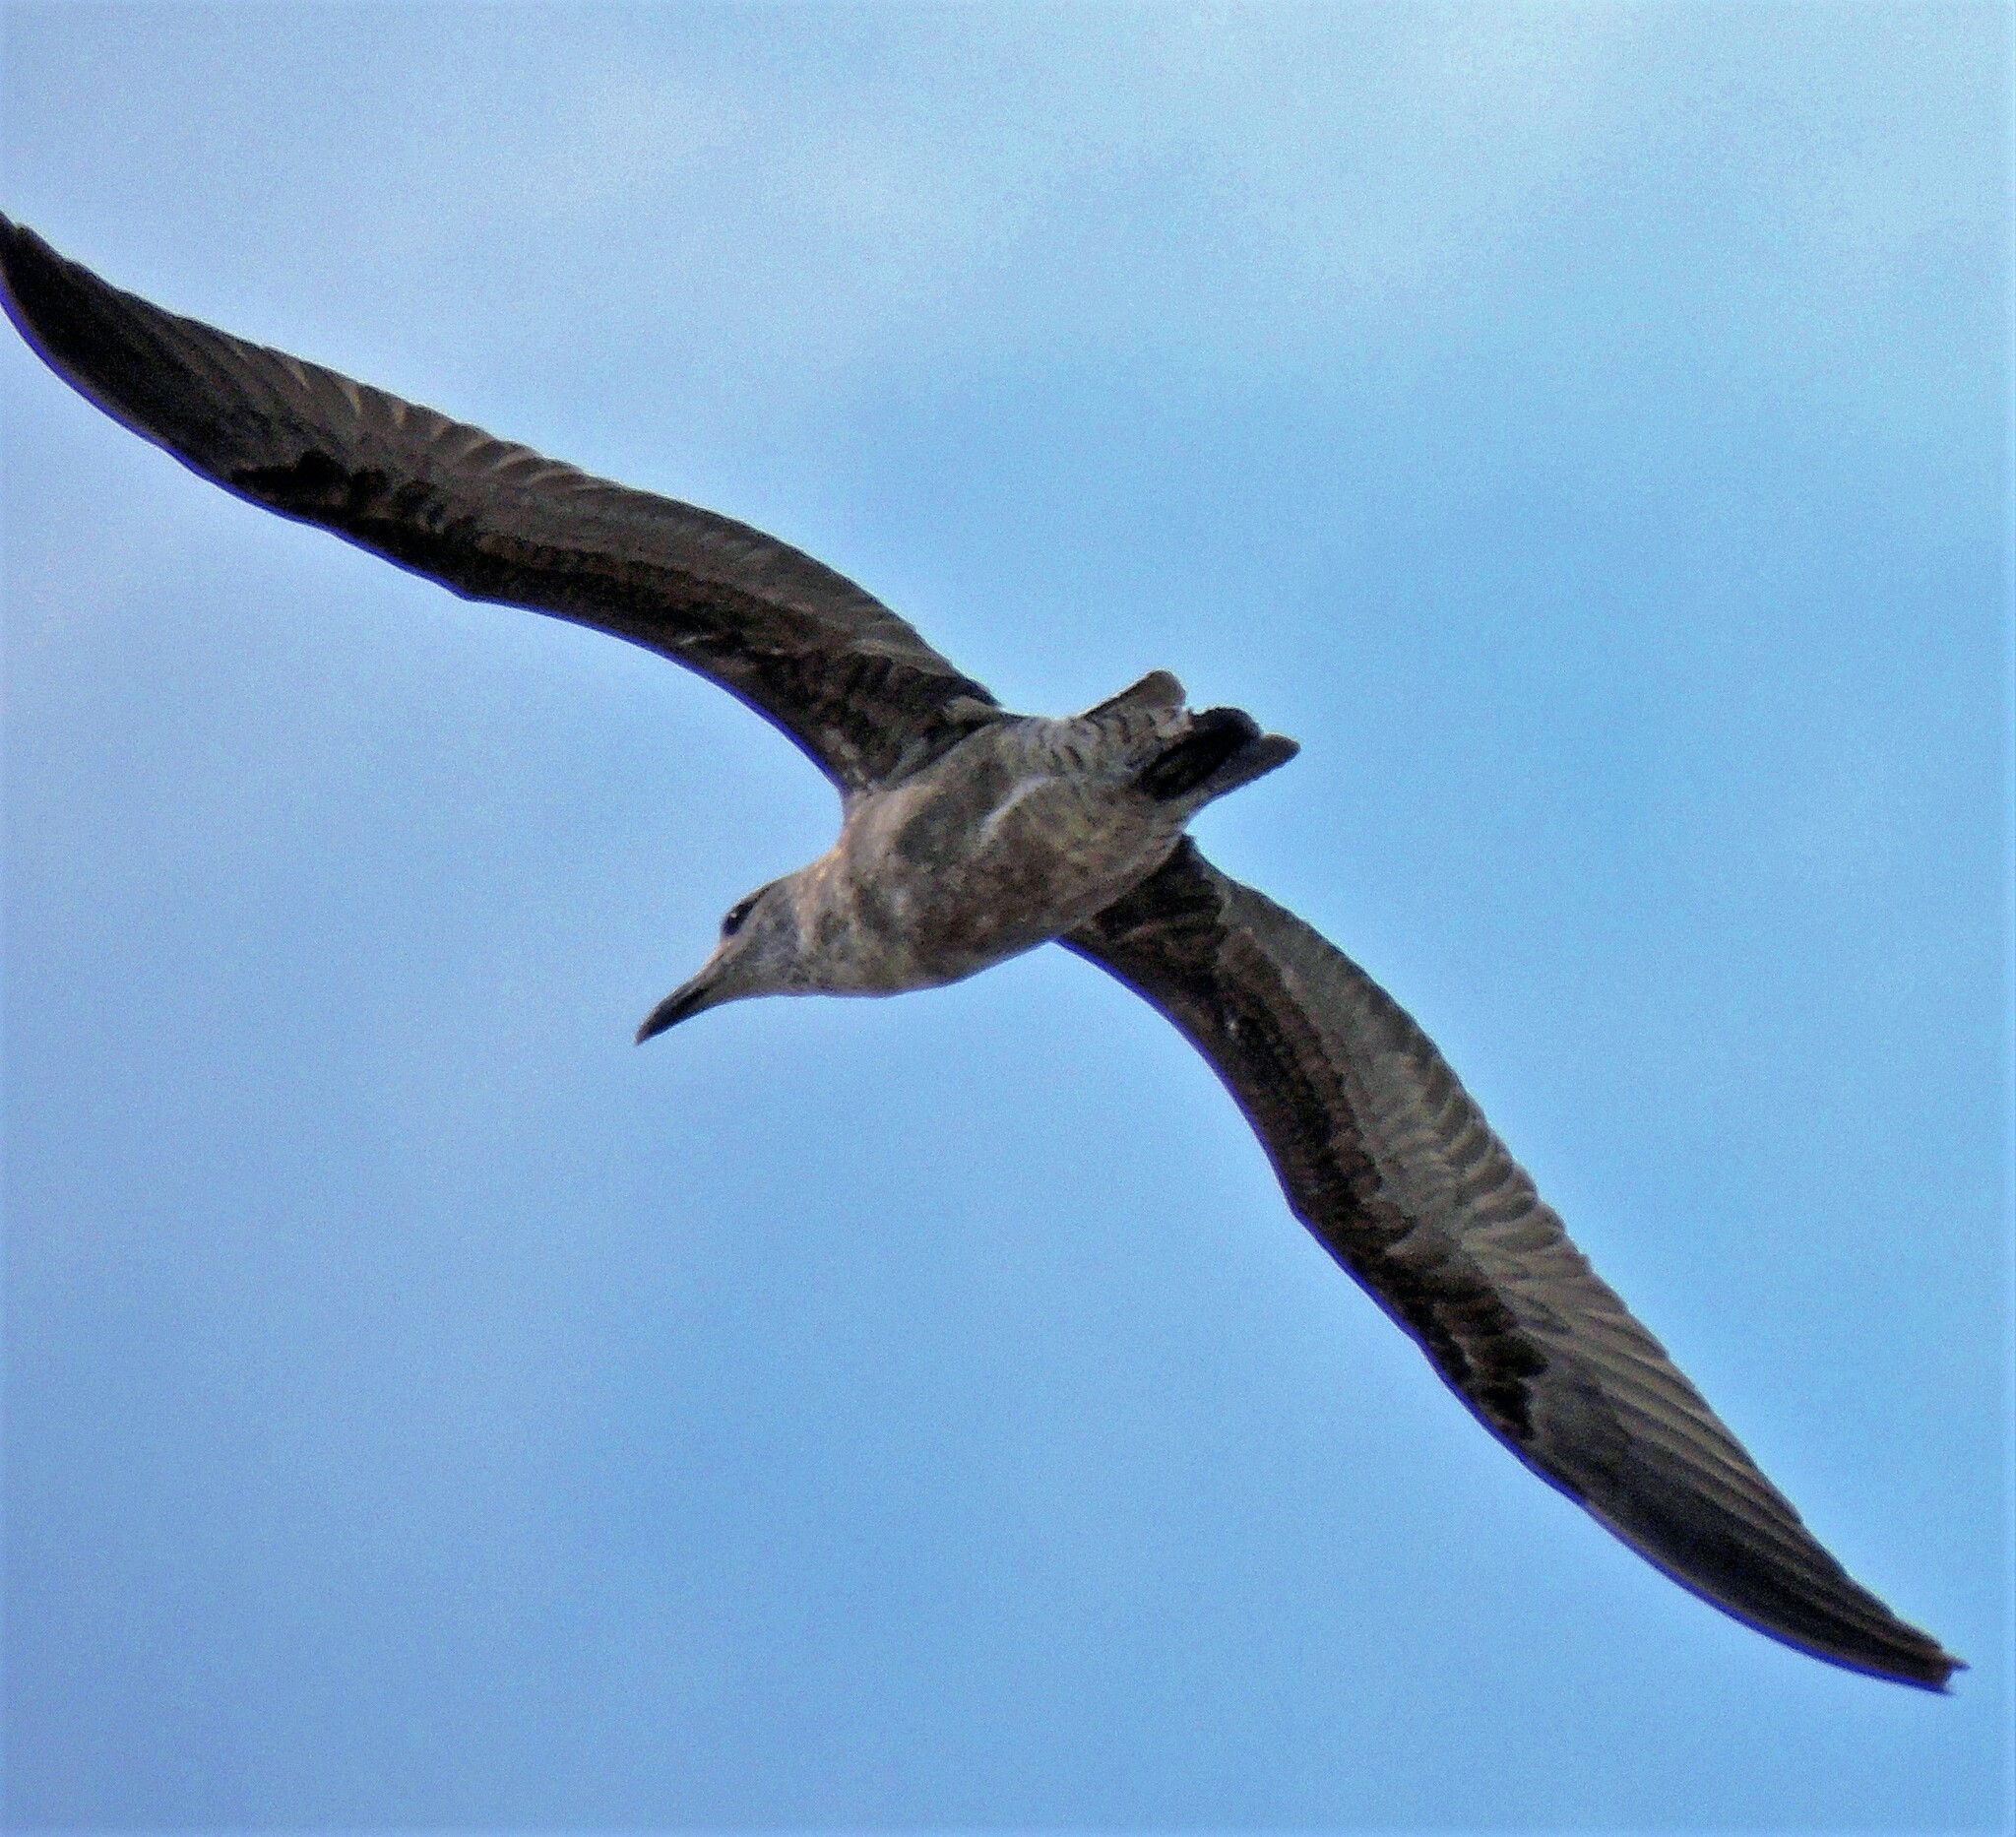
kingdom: Animalia
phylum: Chordata
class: Aves
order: Charadriiformes
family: Laridae
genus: Larus
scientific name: Larus dominicanus
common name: Kelp gull
